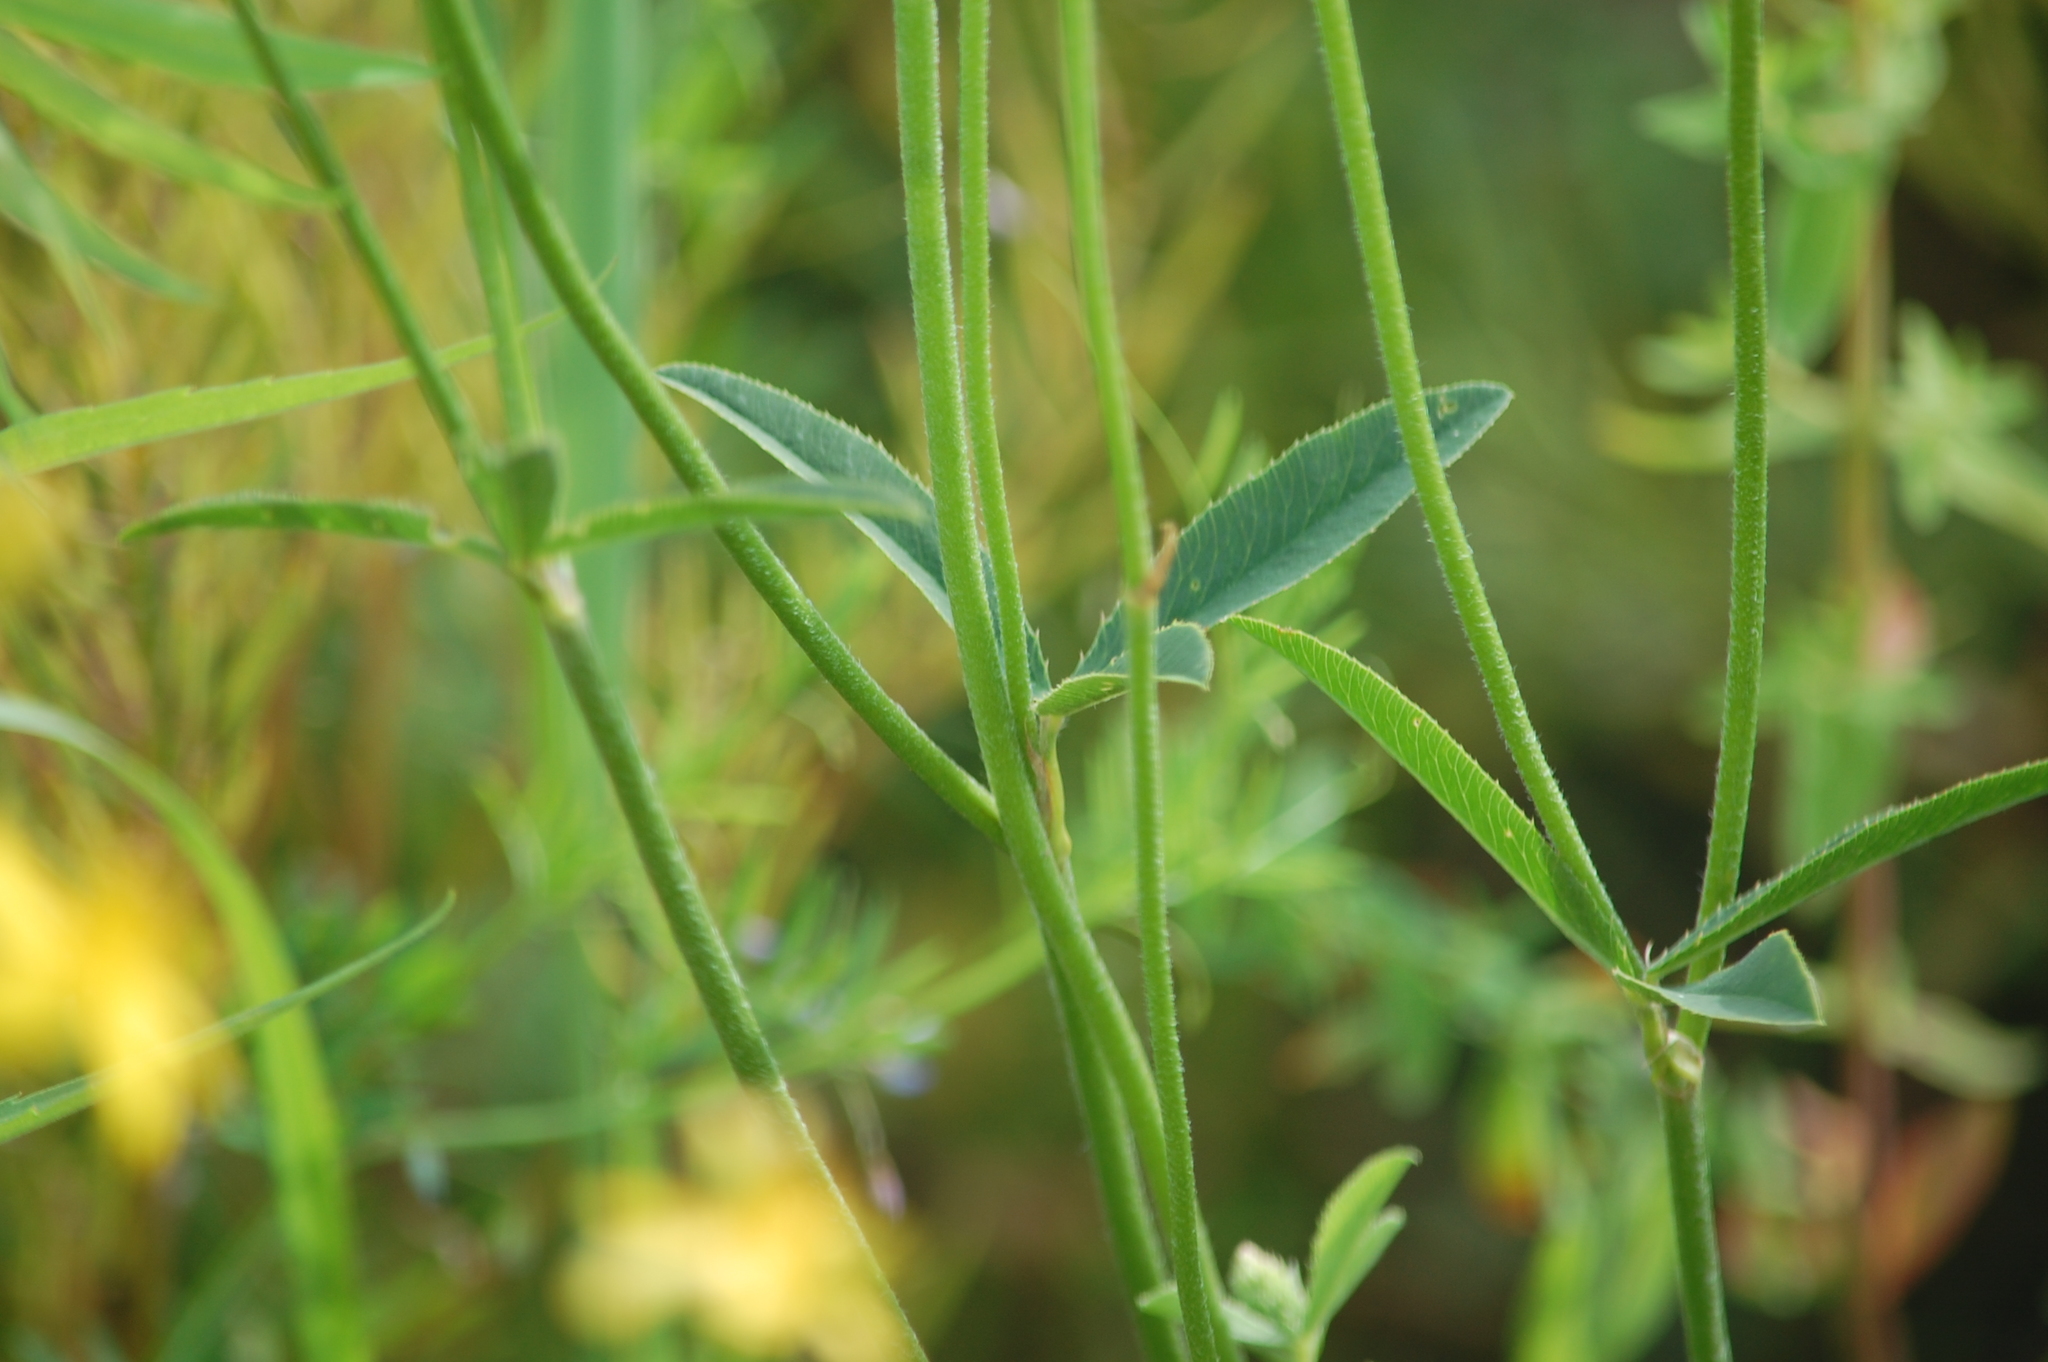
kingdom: Plantae
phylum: Tracheophyta
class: Magnoliopsida
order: Fabales
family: Fabaceae
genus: Trifolium
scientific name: Trifolium montanum
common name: Mountain clover
